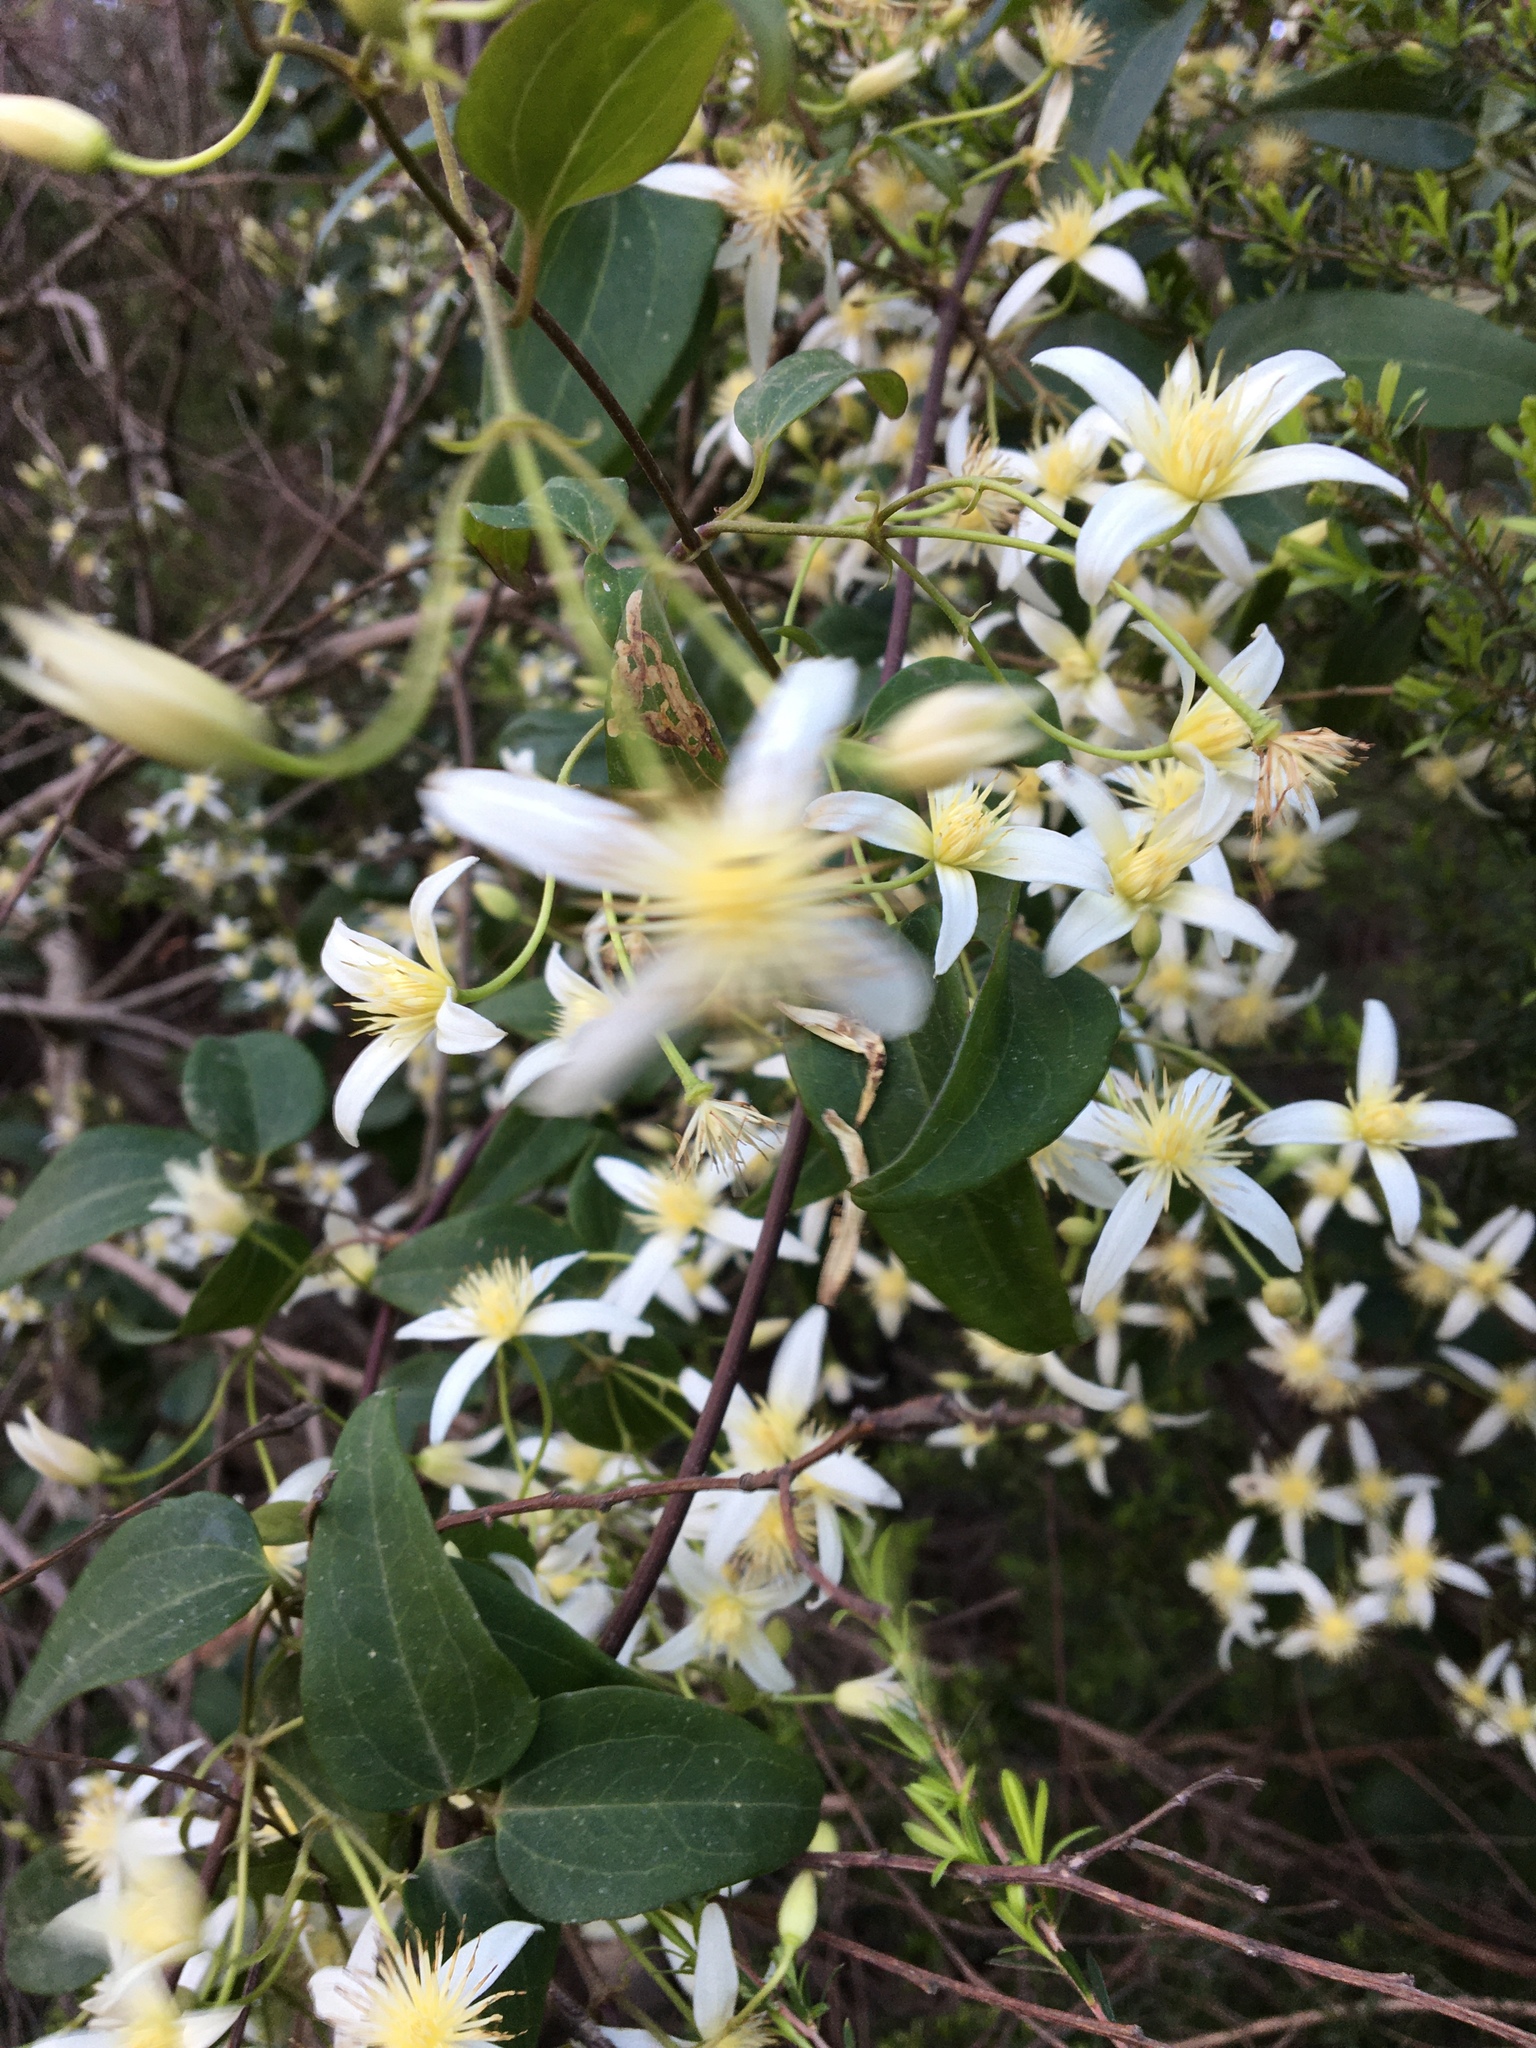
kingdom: Plantae
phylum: Tracheophyta
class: Magnoliopsida
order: Ranunculales
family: Ranunculaceae
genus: Clematis
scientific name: Clematis aristata
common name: Mountain clematis
